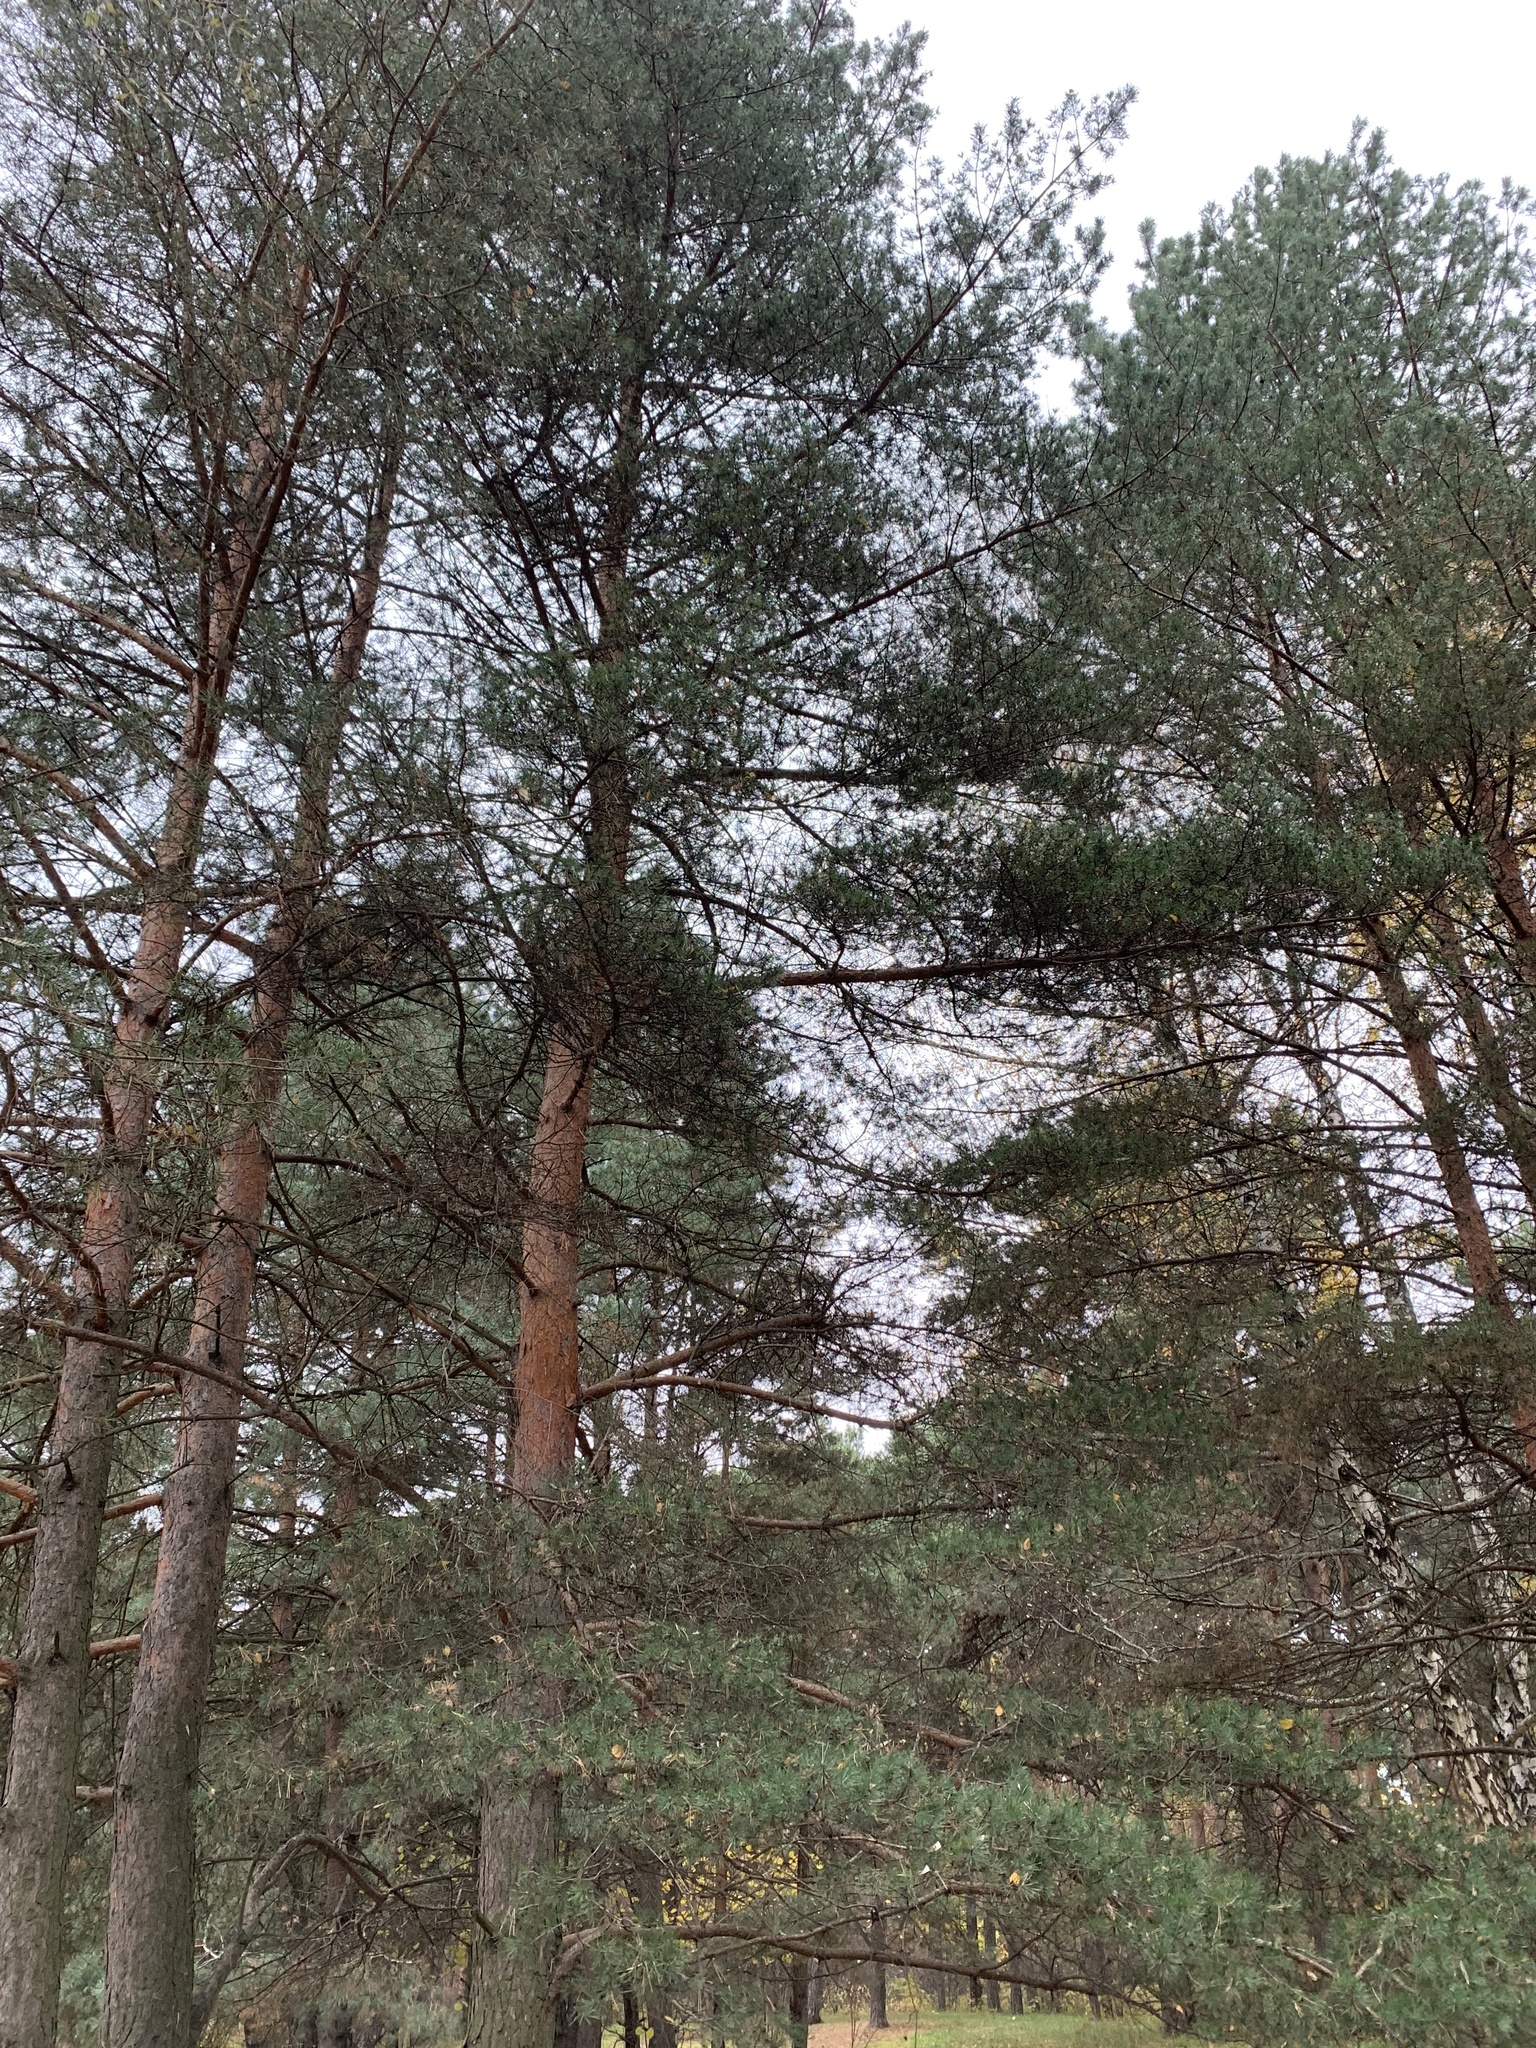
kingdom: Plantae
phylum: Tracheophyta
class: Pinopsida
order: Pinales
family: Pinaceae
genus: Pinus
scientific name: Pinus sylvestris
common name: Scots pine
